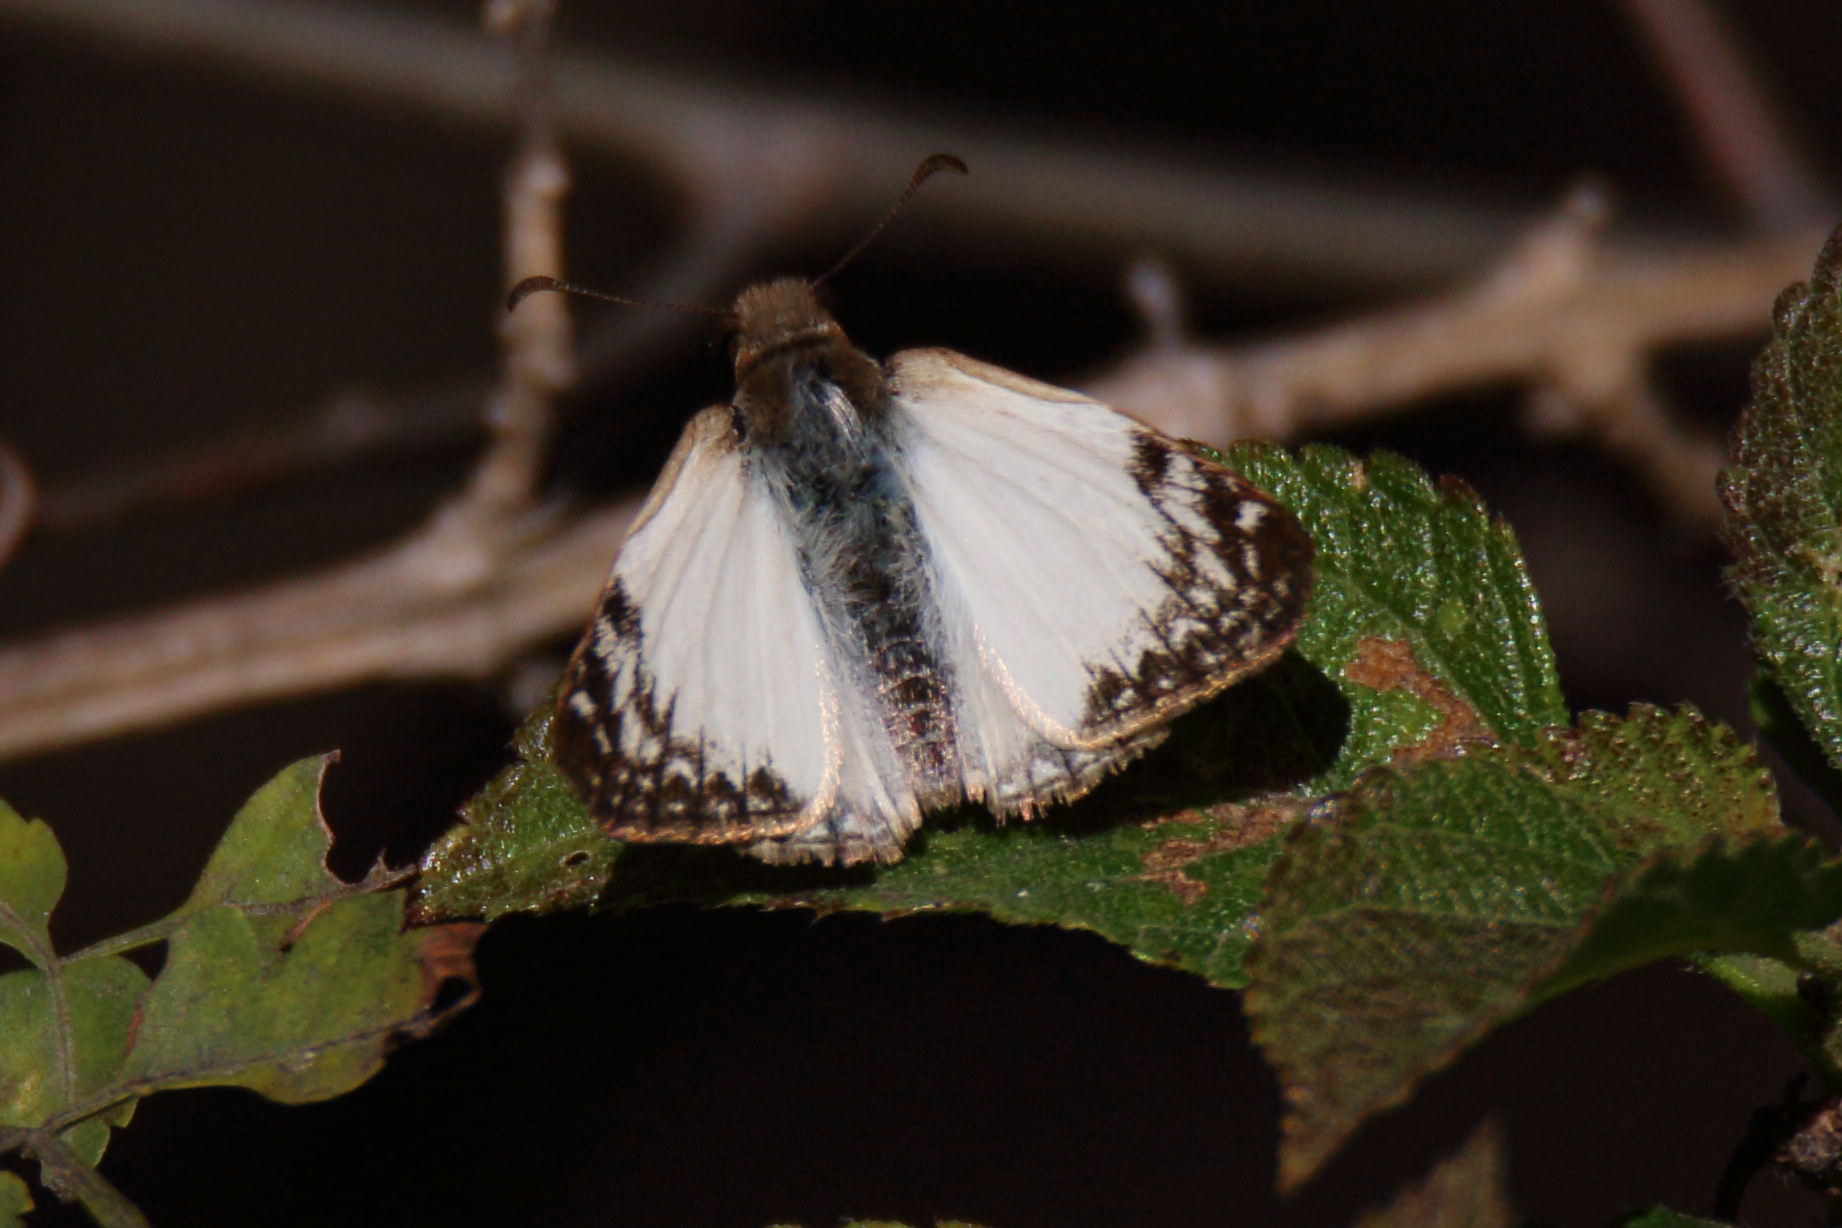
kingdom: Animalia
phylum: Arthropoda
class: Insecta
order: Lepidoptera
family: Hesperiidae
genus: Heliopetes
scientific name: Heliopetes laviana
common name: Laviana white-skipper
